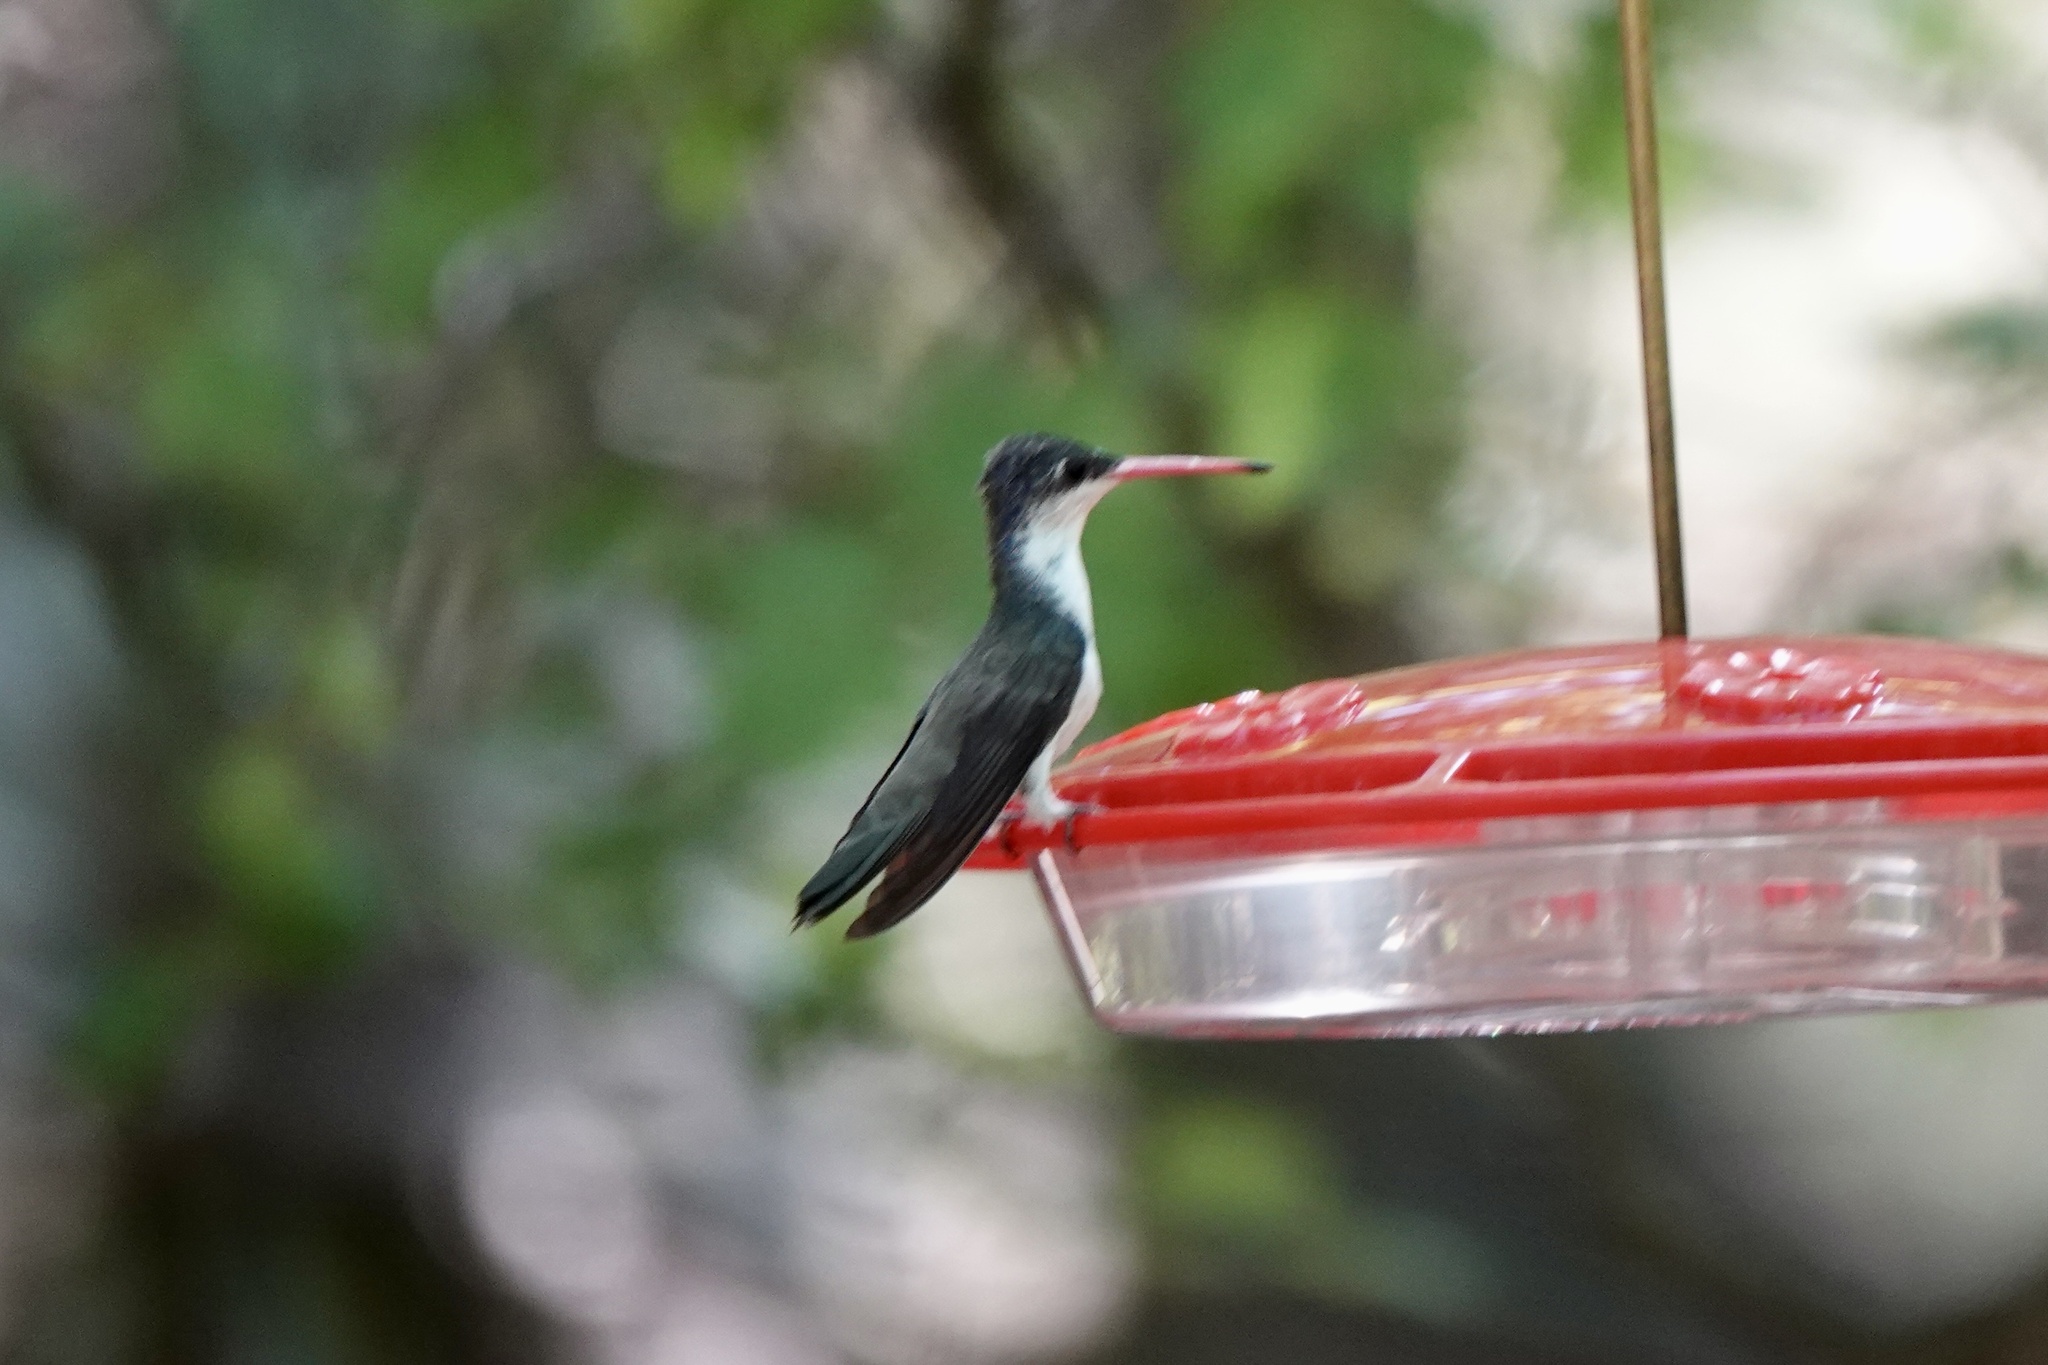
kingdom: Animalia
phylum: Chordata
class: Aves
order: Apodiformes
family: Trochilidae
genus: Leucolia
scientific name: Leucolia violiceps
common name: Violet-crowned hummingbird
